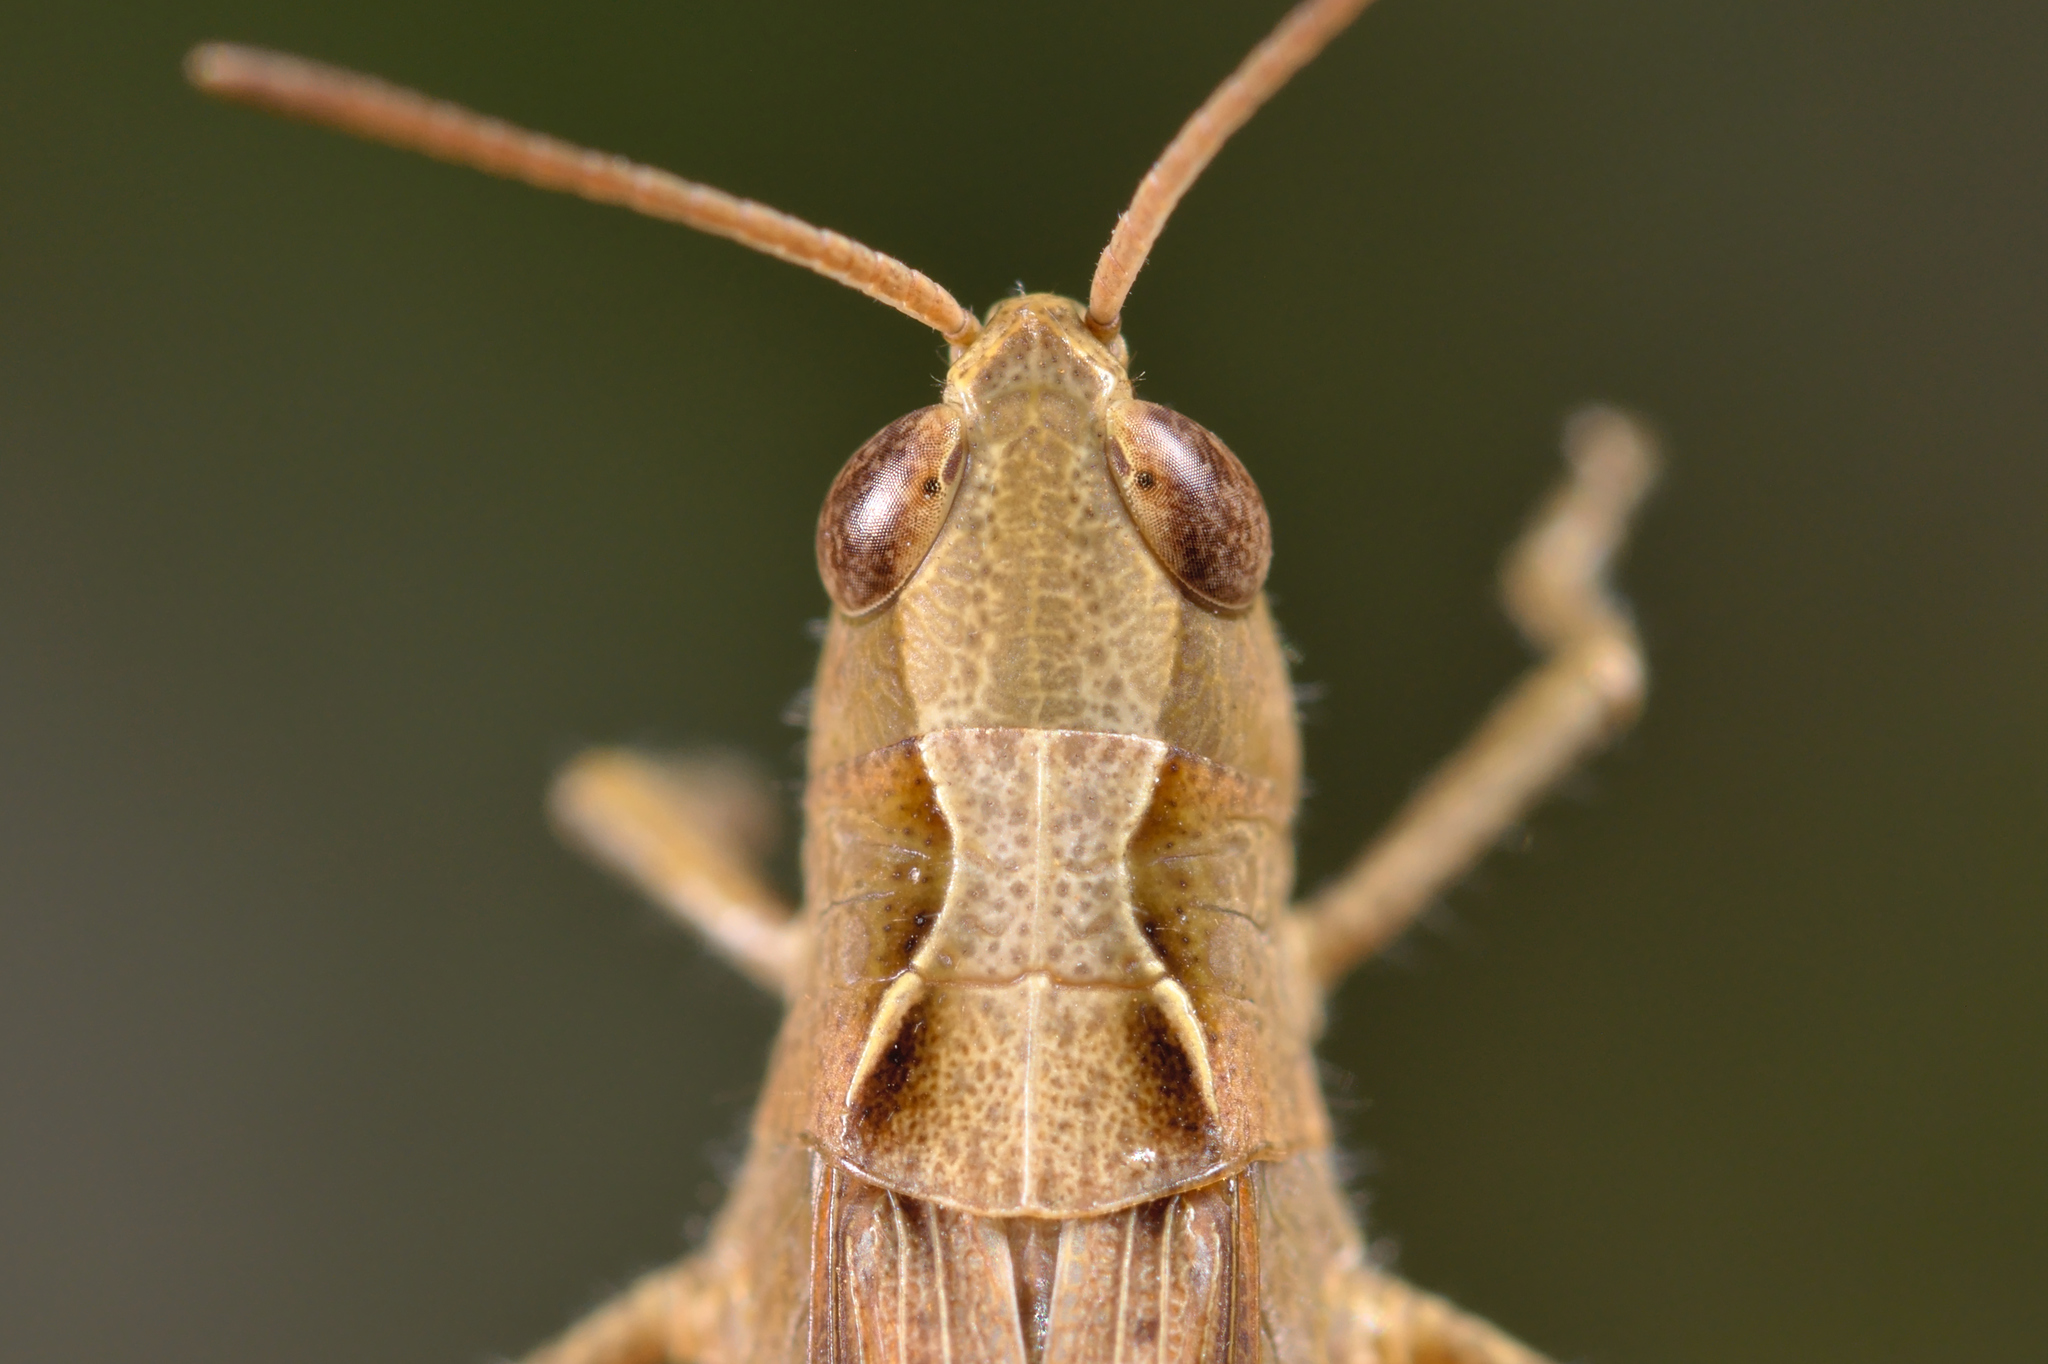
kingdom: Animalia
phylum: Arthropoda
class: Insecta
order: Orthoptera
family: Acrididae
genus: Chorthippus
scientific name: Chorthippus vagans
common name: Heath grasshopper
